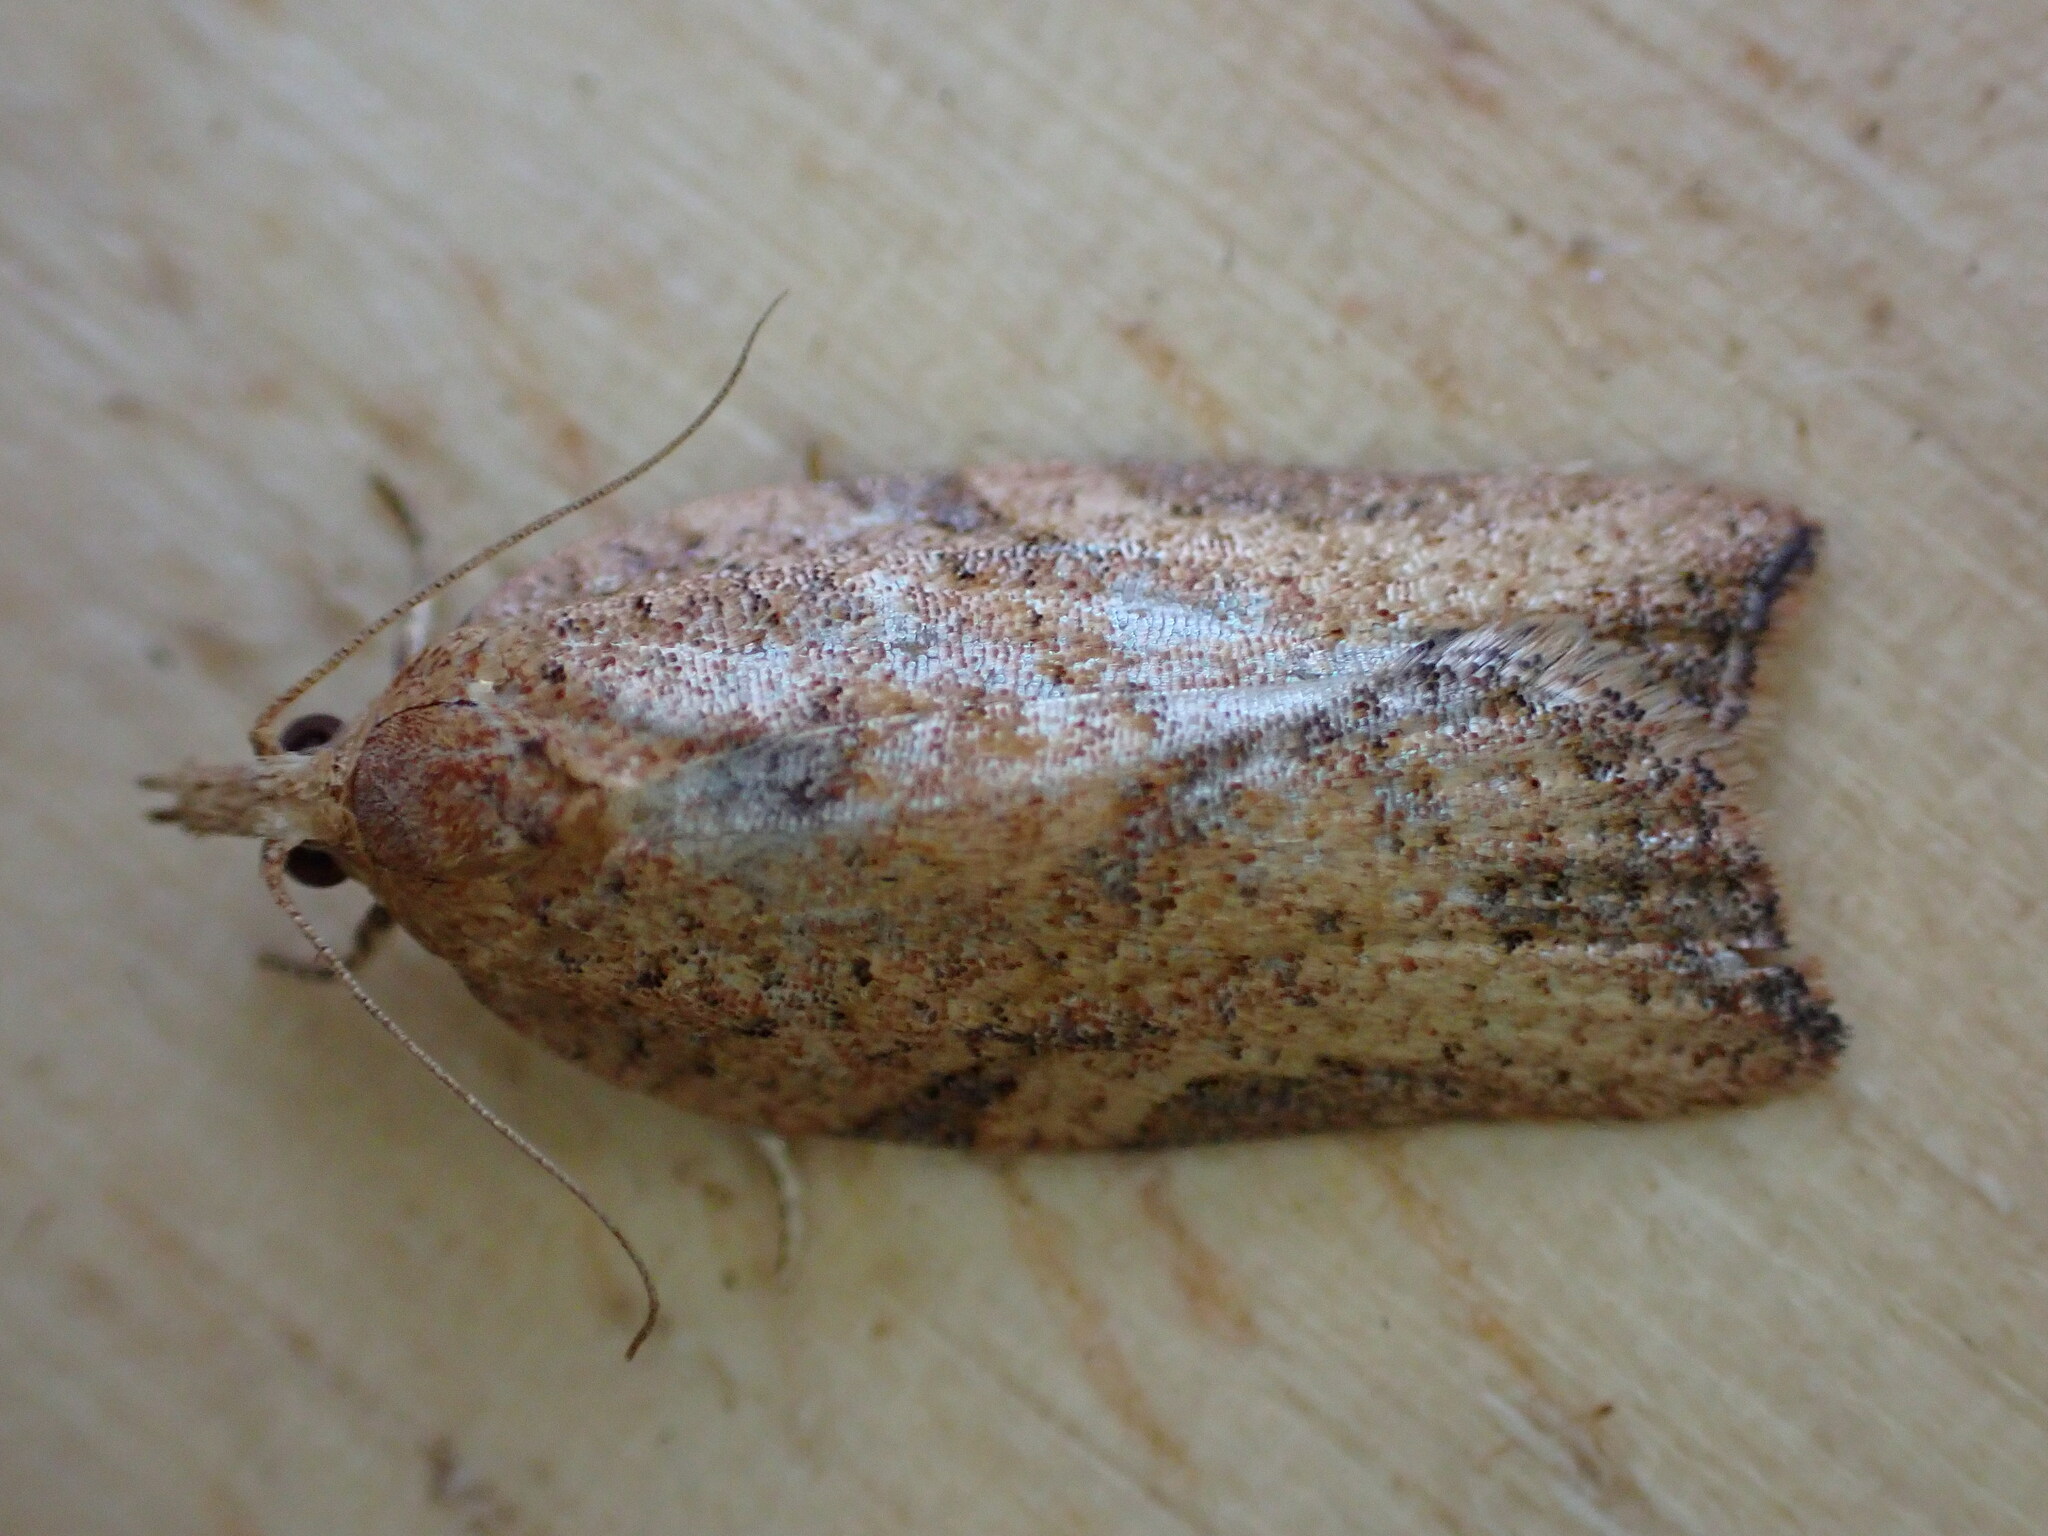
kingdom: Animalia
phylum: Arthropoda
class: Insecta
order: Lepidoptera
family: Tortricidae
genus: Epiphyas
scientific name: Epiphyas postvittana
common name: Light brown apple moth
